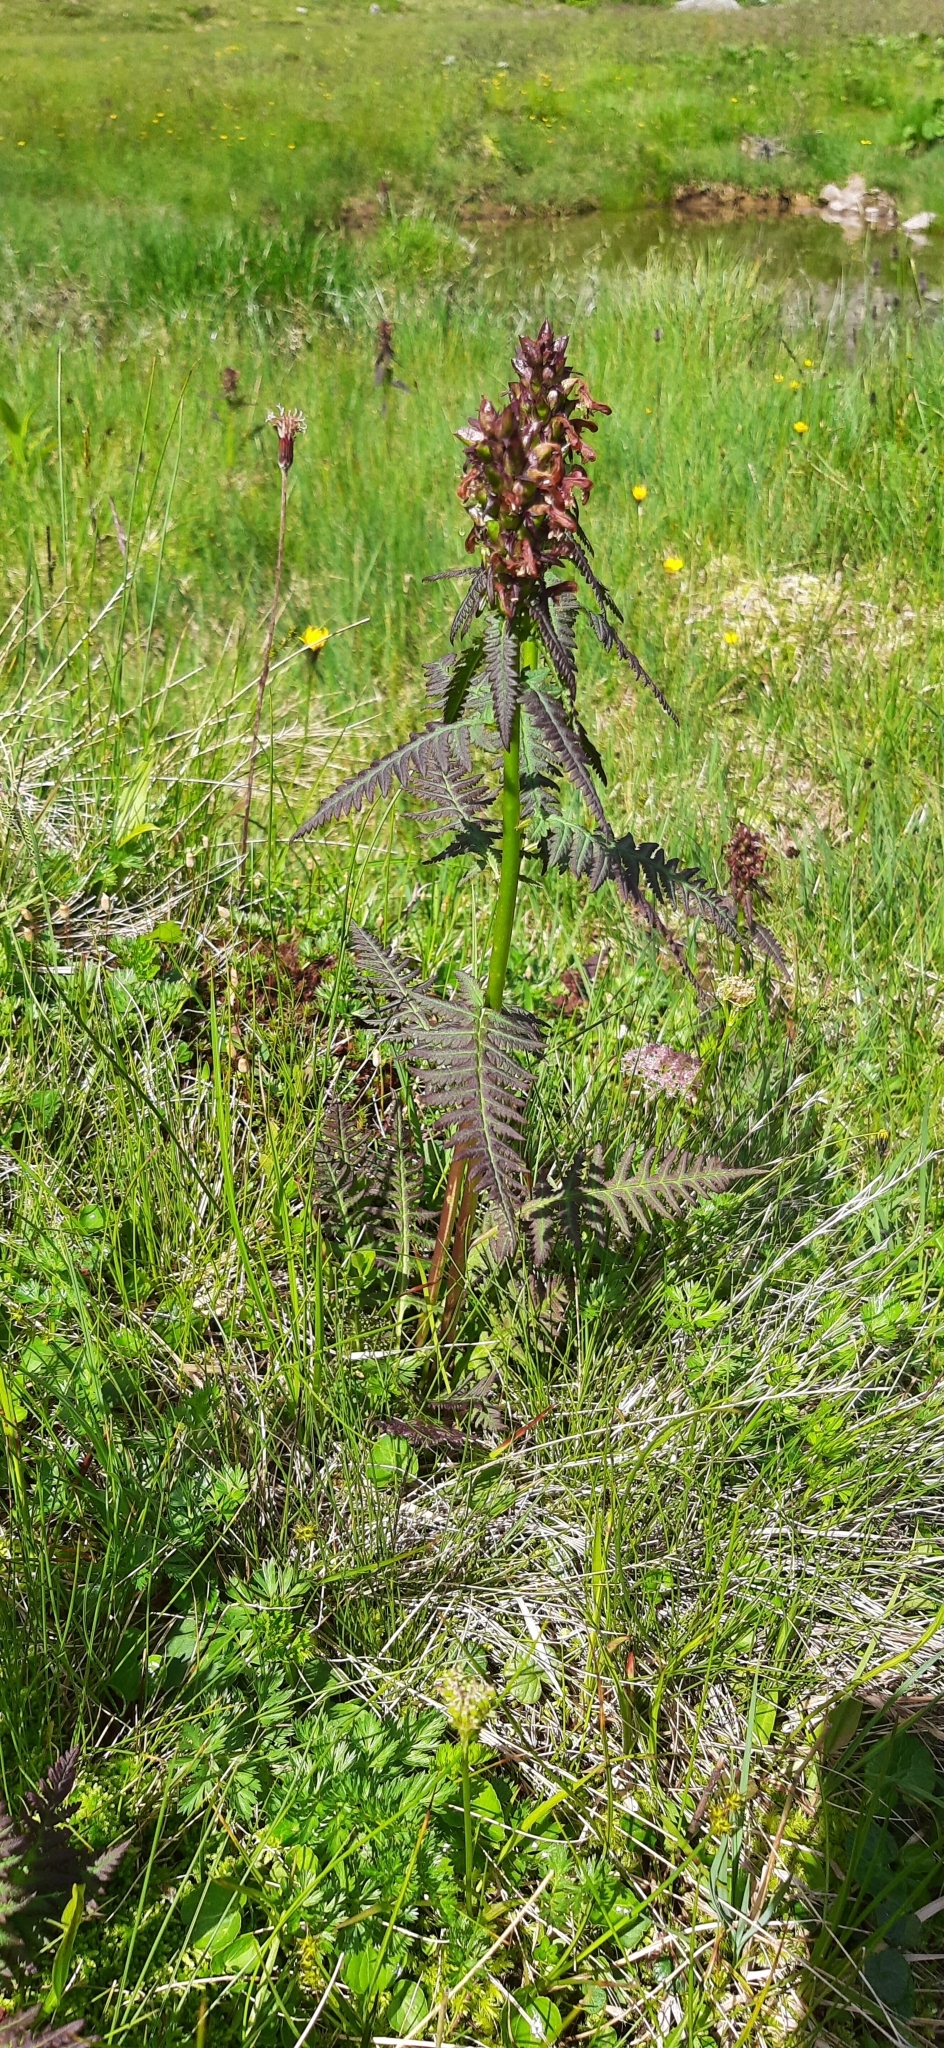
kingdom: Plantae
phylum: Tracheophyta
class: Magnoliopsida
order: Lamiales
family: Orobanchaceae
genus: Pedicularis
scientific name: Pedicularis recutita
